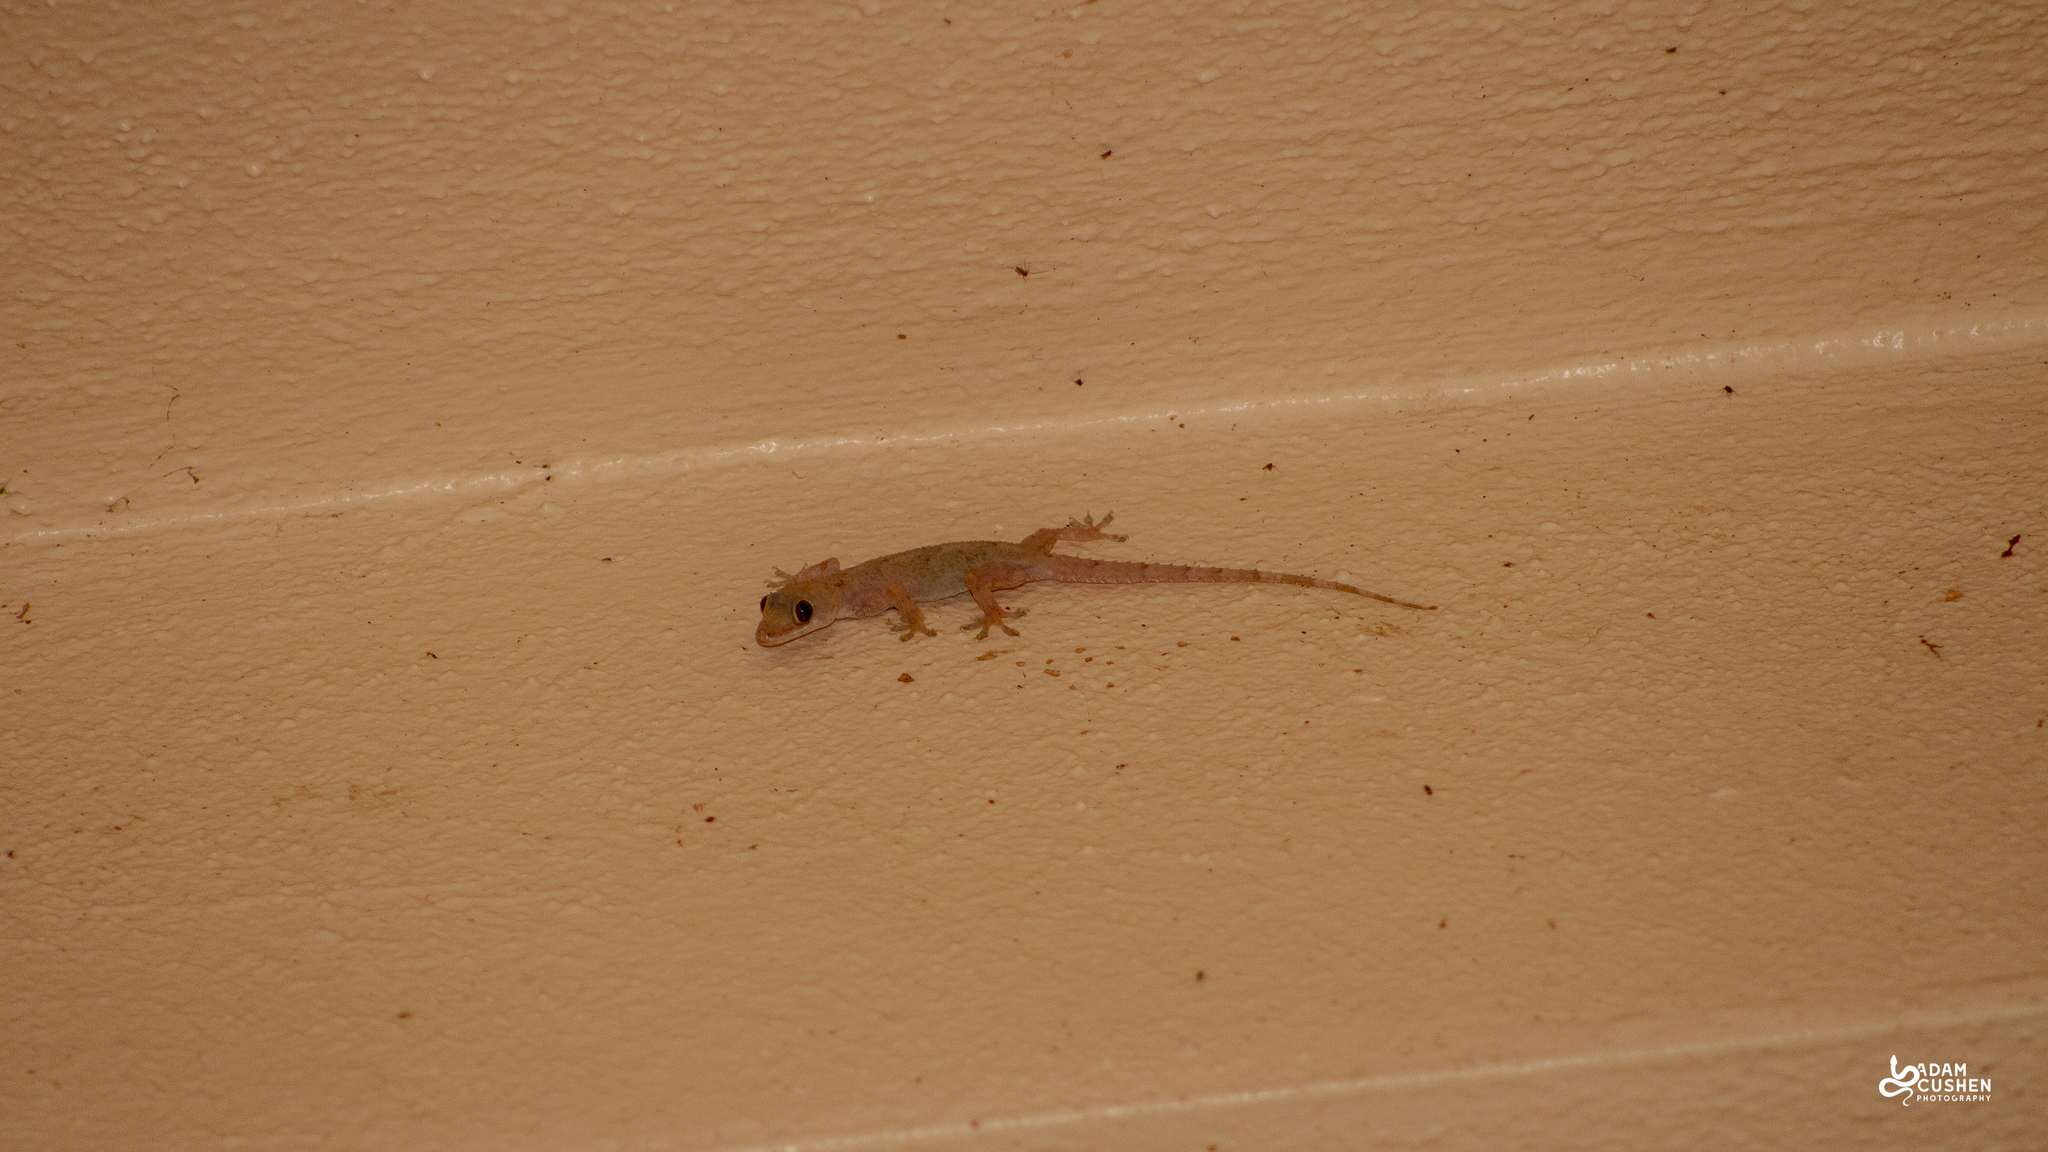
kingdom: Animalia
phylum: Chordata
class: Squamata
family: Gekkonidae
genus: Hemidactylus
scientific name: Hemidactylus mabouia
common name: House gecko
